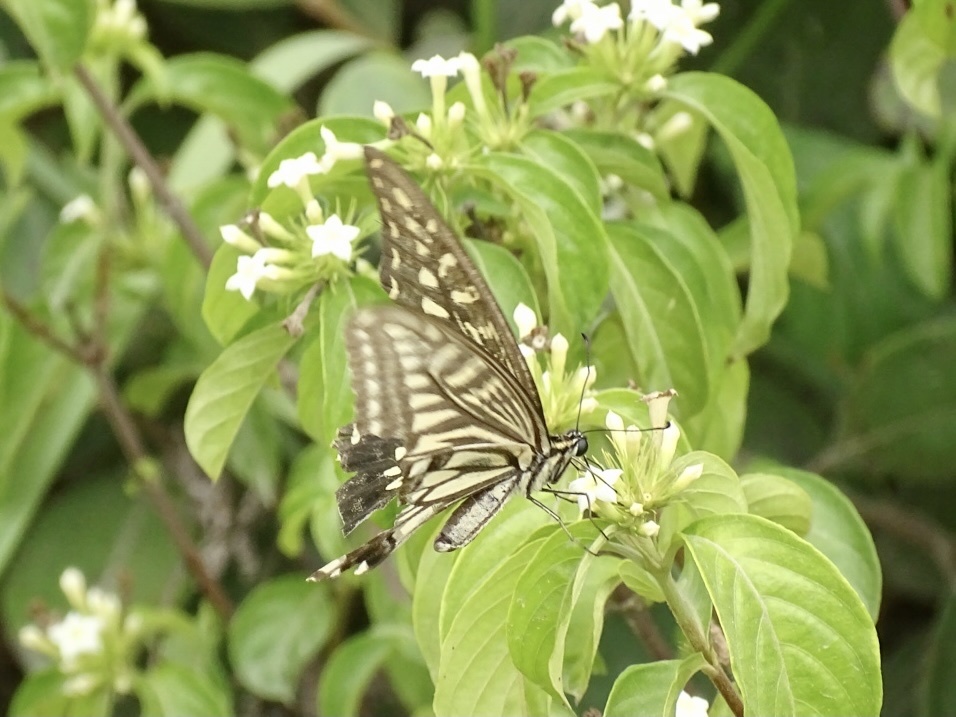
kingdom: Animalia
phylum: Arthropoda
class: Insecta
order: Lepidoptera
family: Papilionidae
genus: Papilio
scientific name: Papilio xuthus
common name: Asian swallowtail
